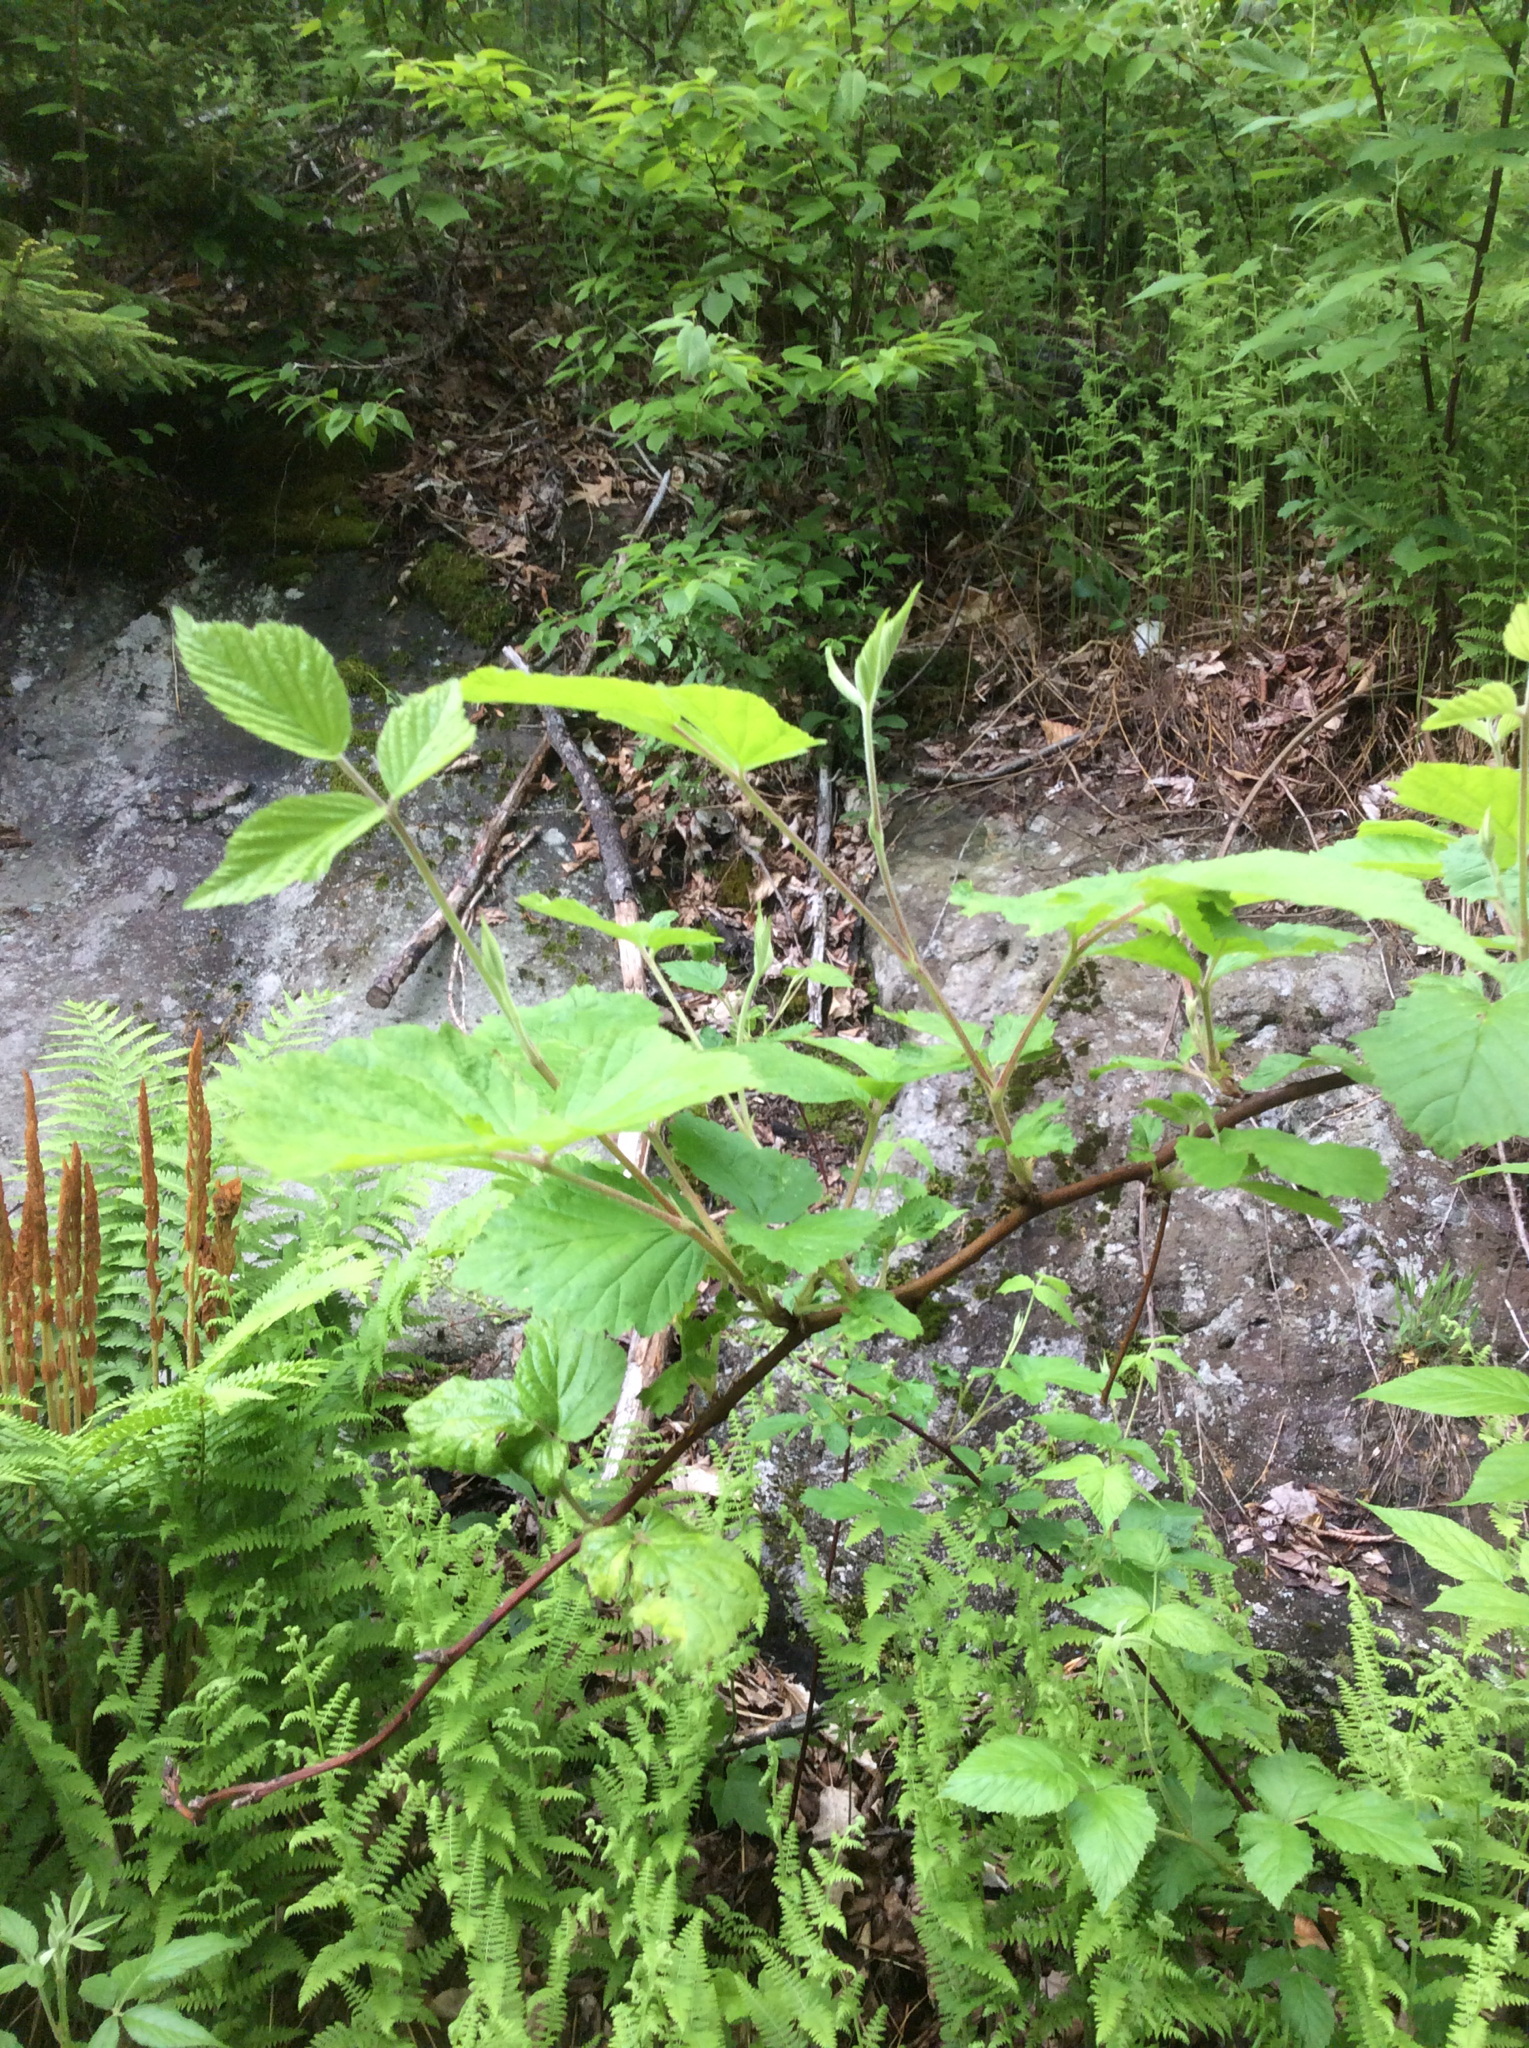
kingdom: Plantae
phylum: Tracheophyta
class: Magnoliopsida
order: Rosales
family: Rosaceae
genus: Rubus
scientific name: Rubus allegheniensis
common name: Allegheny blackberry
